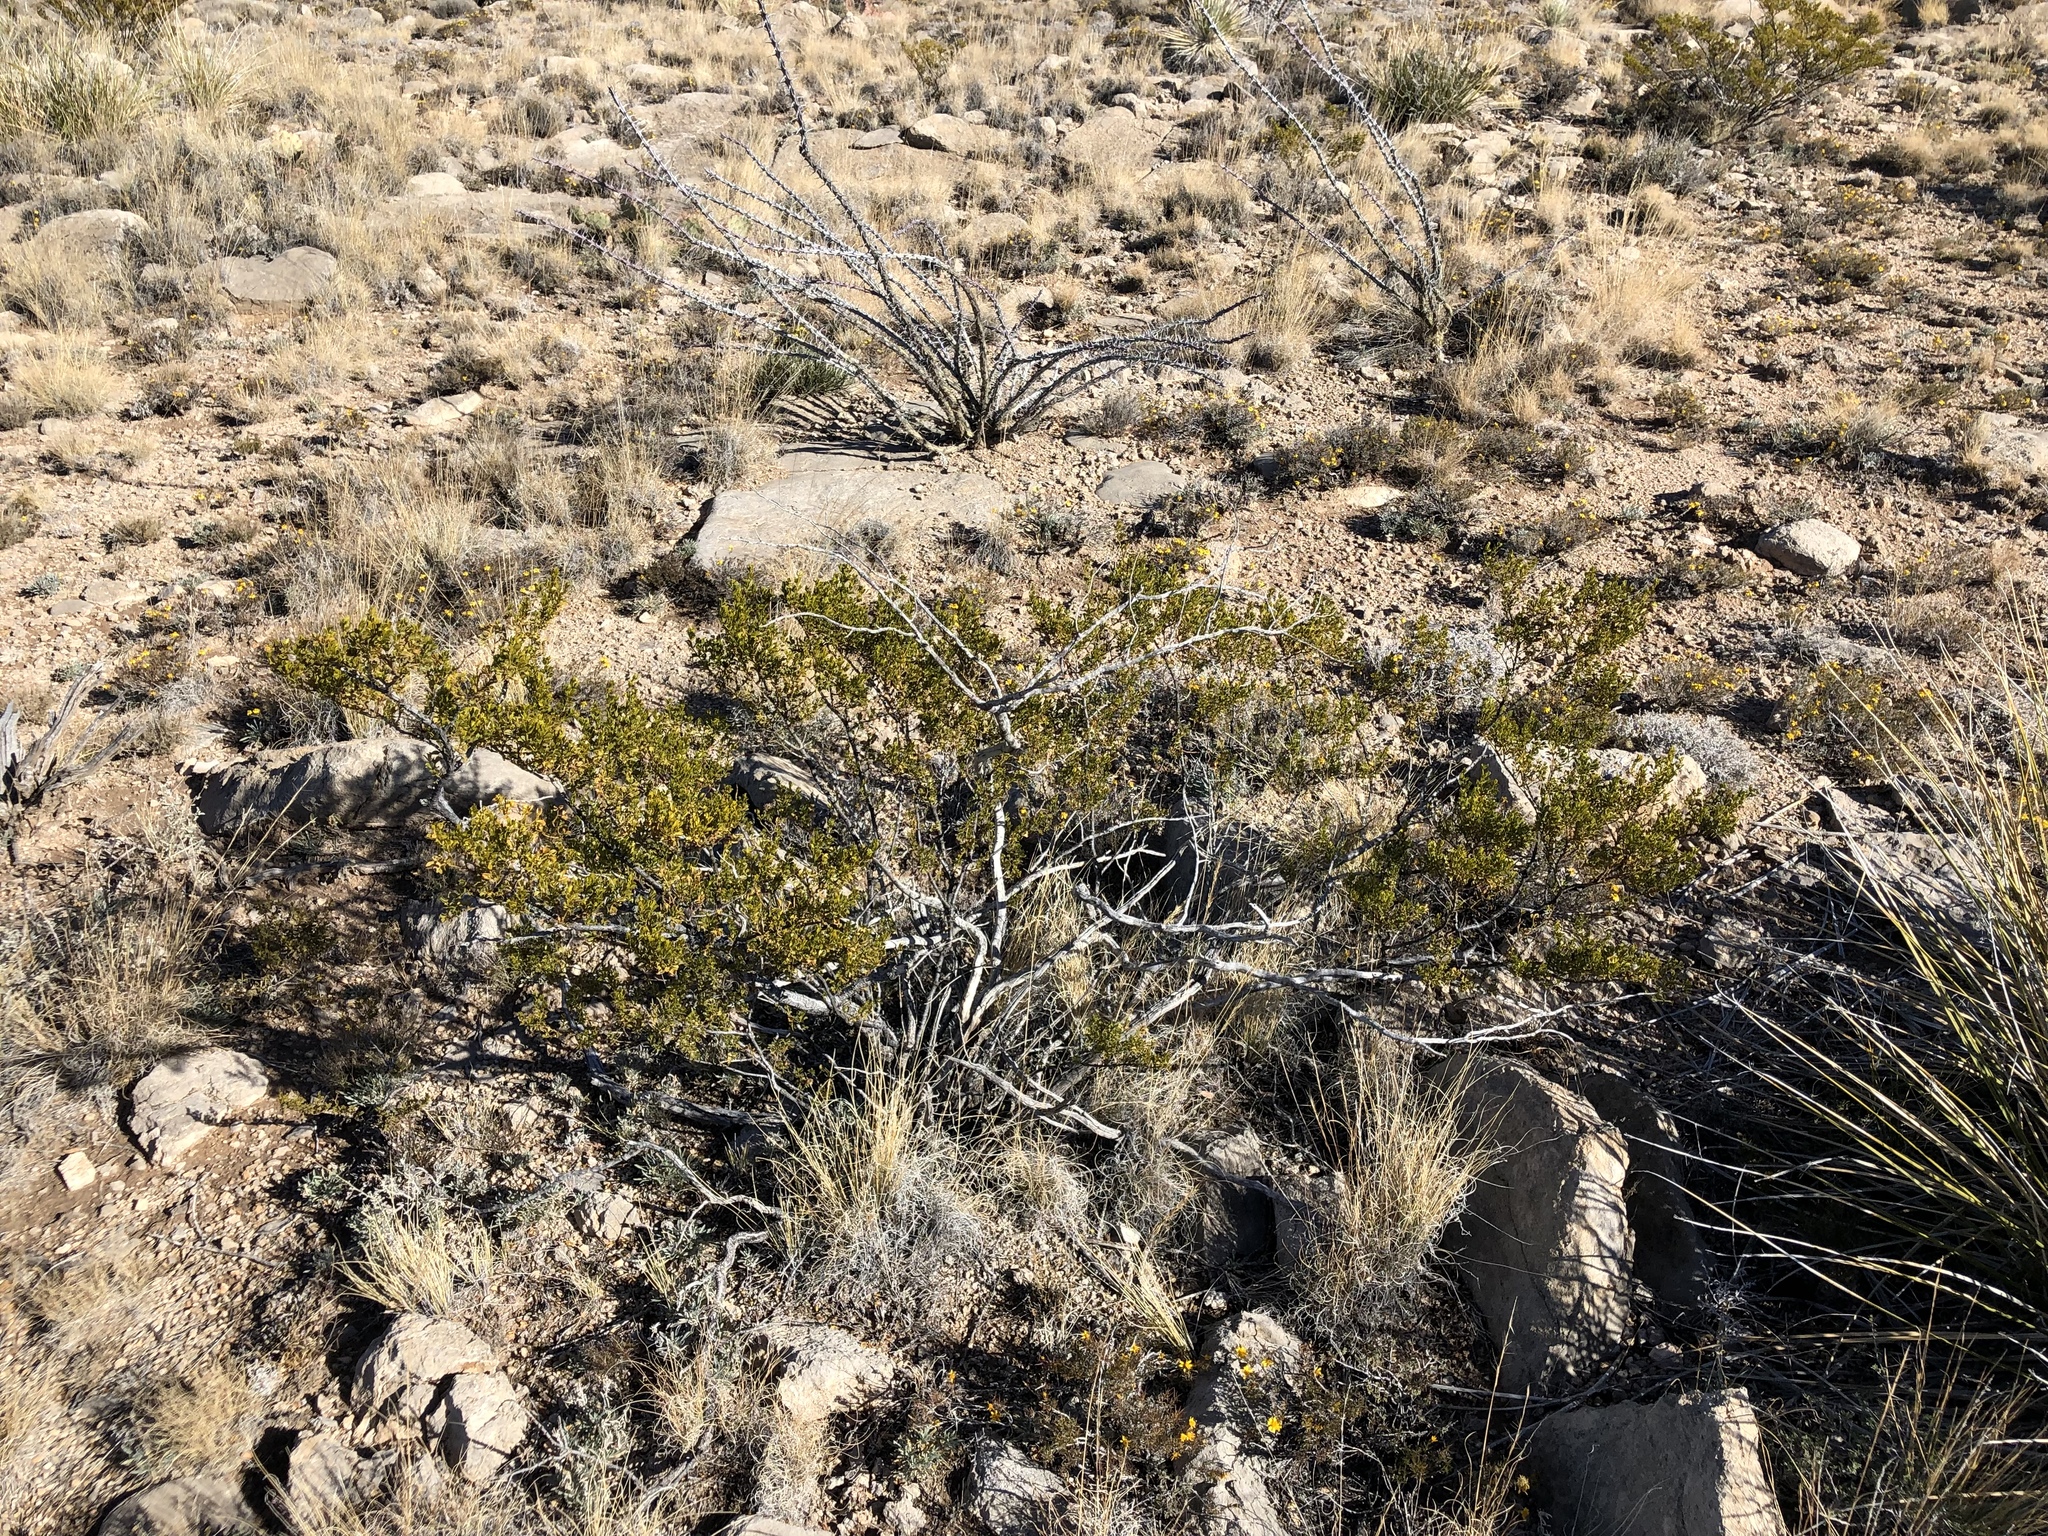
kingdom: Plantae
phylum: Tracheophyta
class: Magnoliopsida
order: Zygophyllales
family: Zygophyllaceae
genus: Larrea
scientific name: Larrea tridentata
